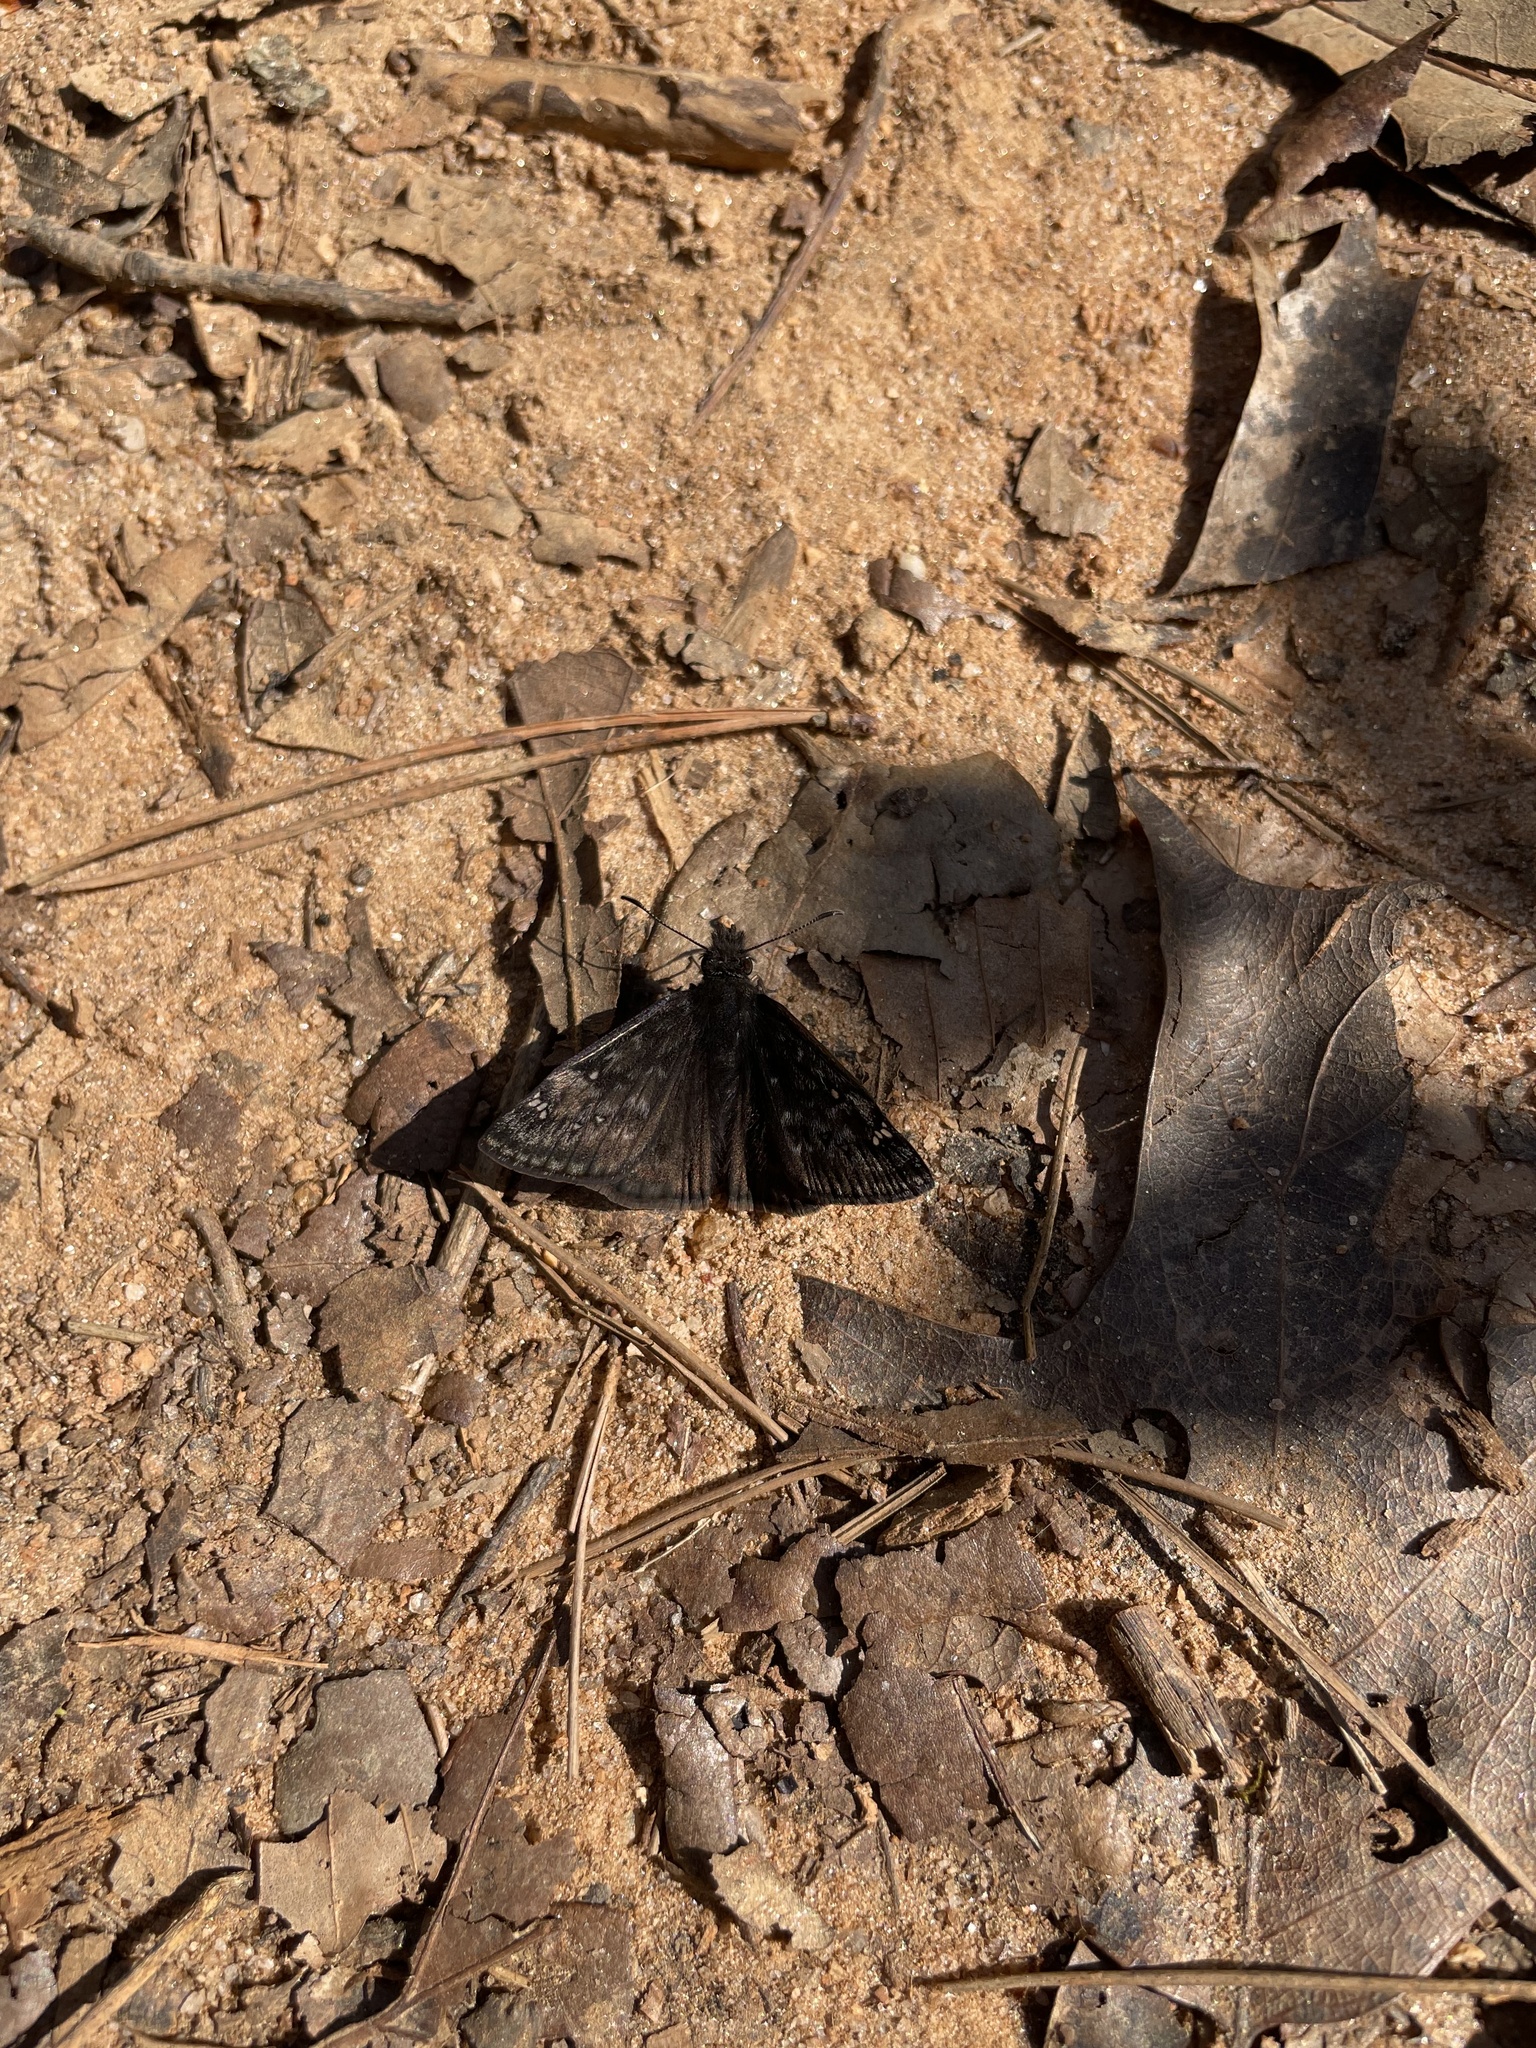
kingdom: Animalia
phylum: Arthropoda
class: Insecta
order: Lepidoptera
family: Hesperiidae
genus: Erynnis
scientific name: Erynnis juvenalis
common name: Juvenal's duskywing
